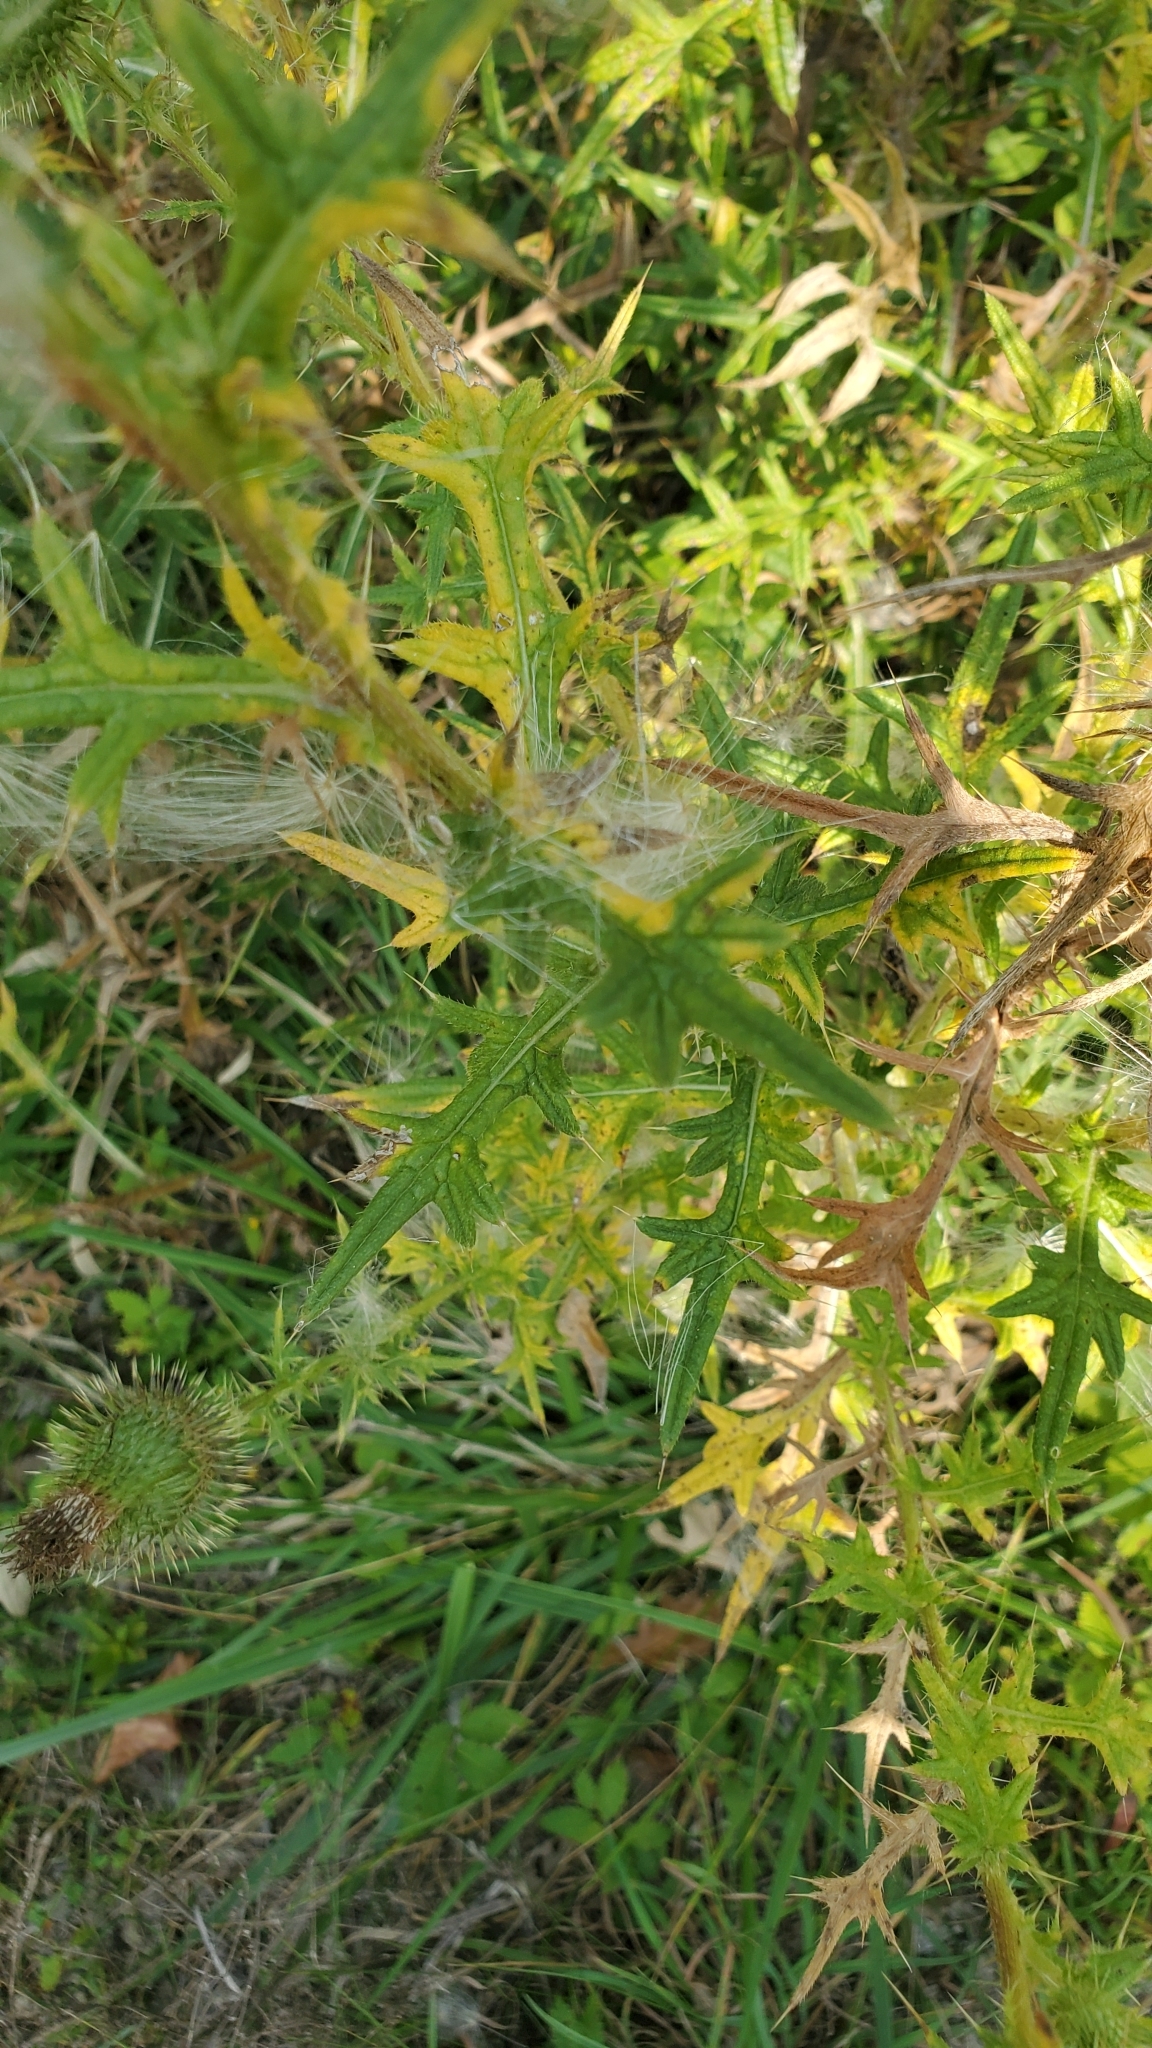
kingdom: Plantae
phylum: Tracheophyta
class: Magnoliopsida
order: Asterales
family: Asteraceae
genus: Cirsium
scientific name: Cirsium vulgare
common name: Bull thistle
